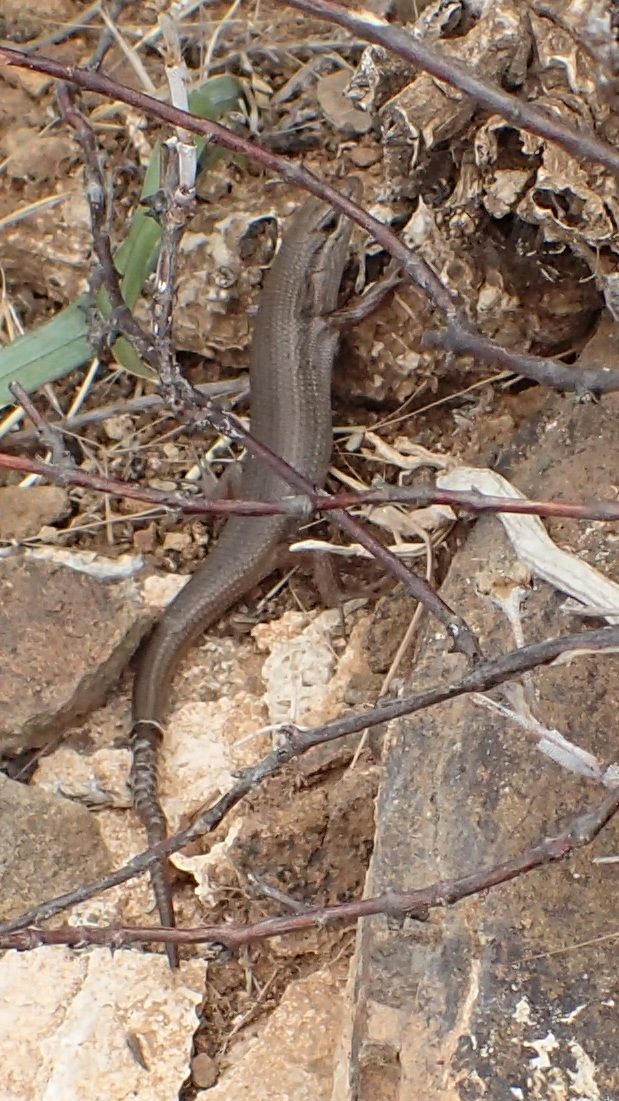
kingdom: Animalia
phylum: Chordata
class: Squamata
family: Scincidae
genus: Trachylepis
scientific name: Trachylepis variegata
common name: Variegated skink
